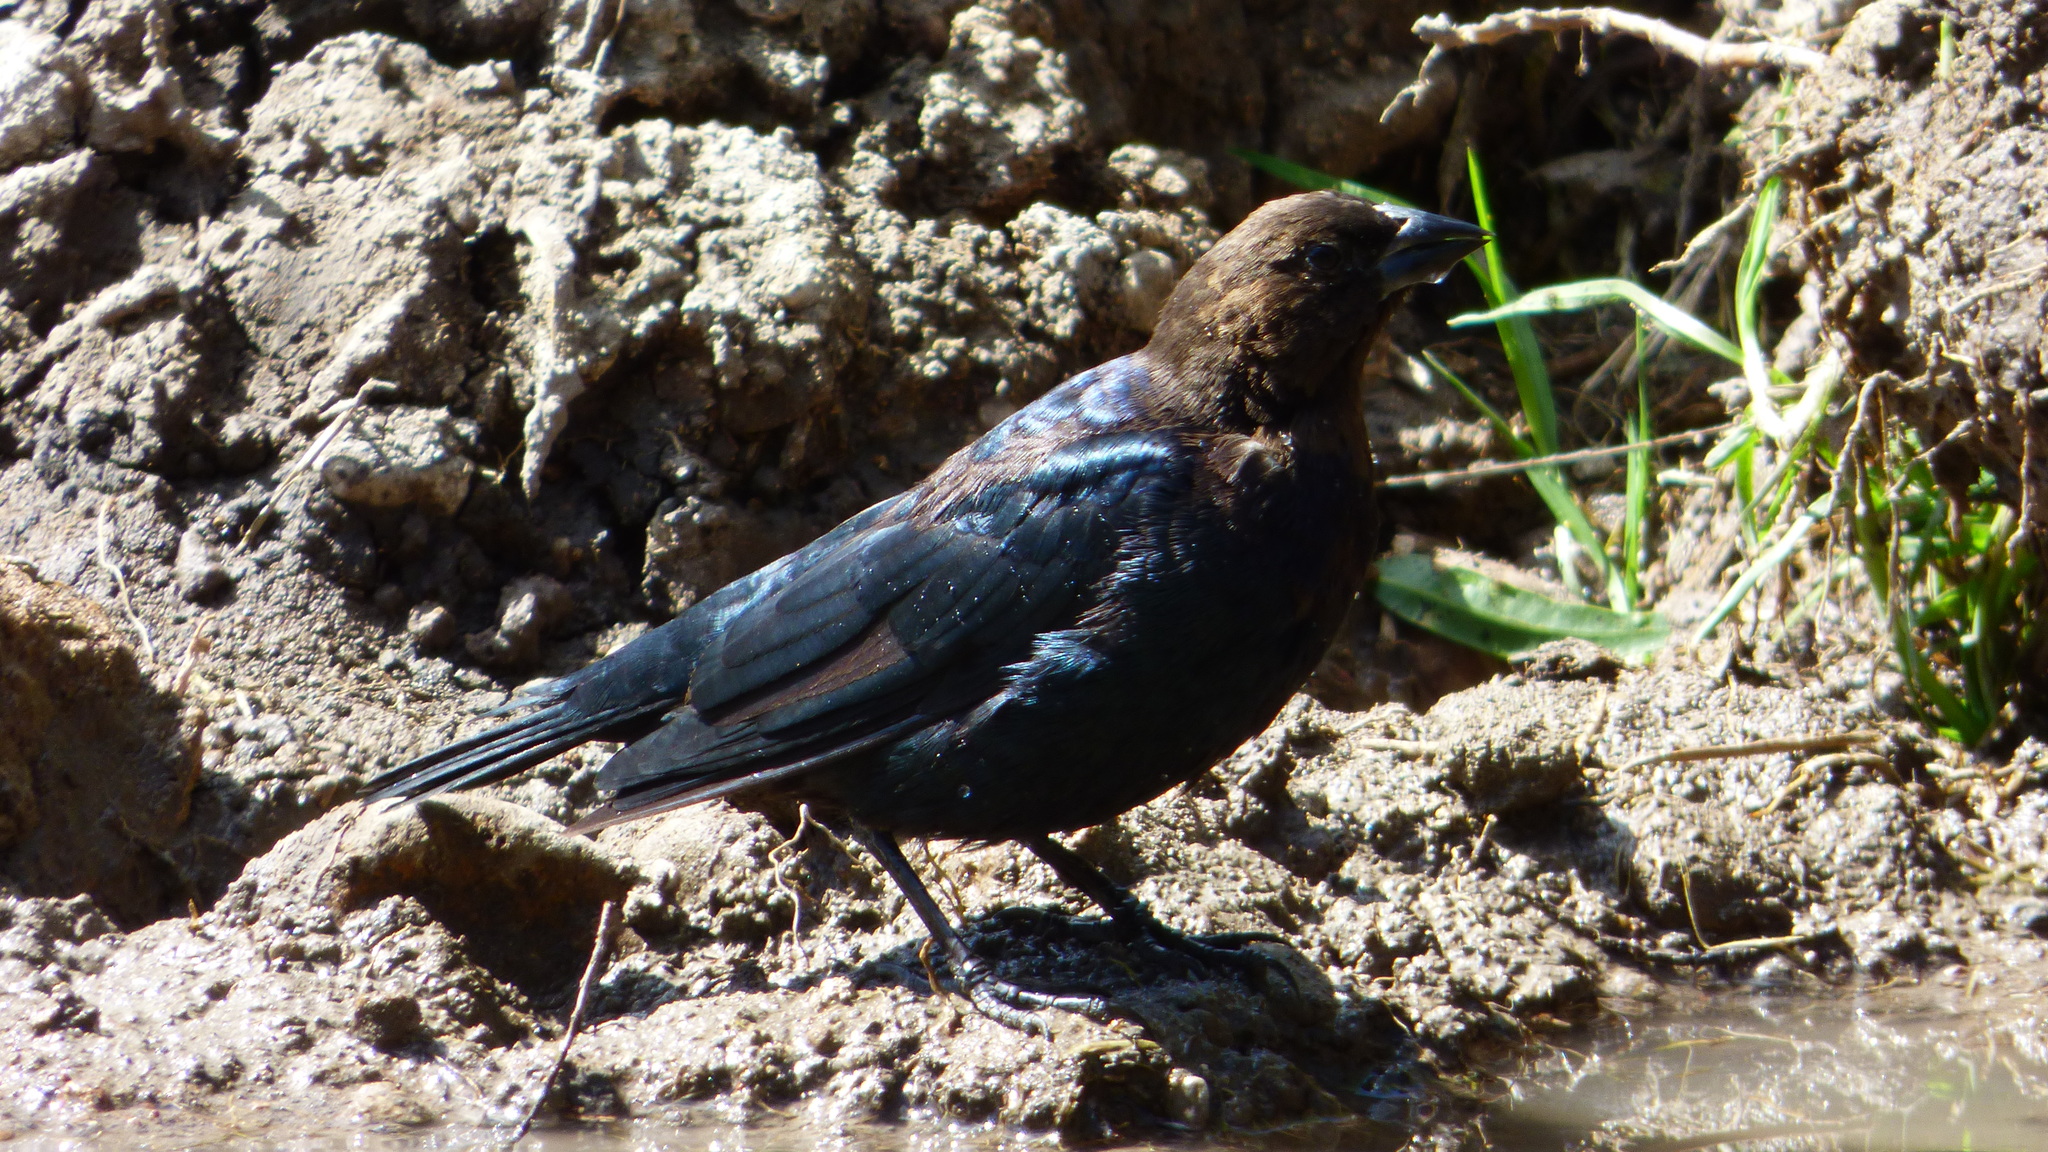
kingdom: Animalia
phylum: Chordata
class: Aves
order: Passeriformes
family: Icteridae
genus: Molothrus
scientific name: Molothrus ater
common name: Brown-headed cowbird
